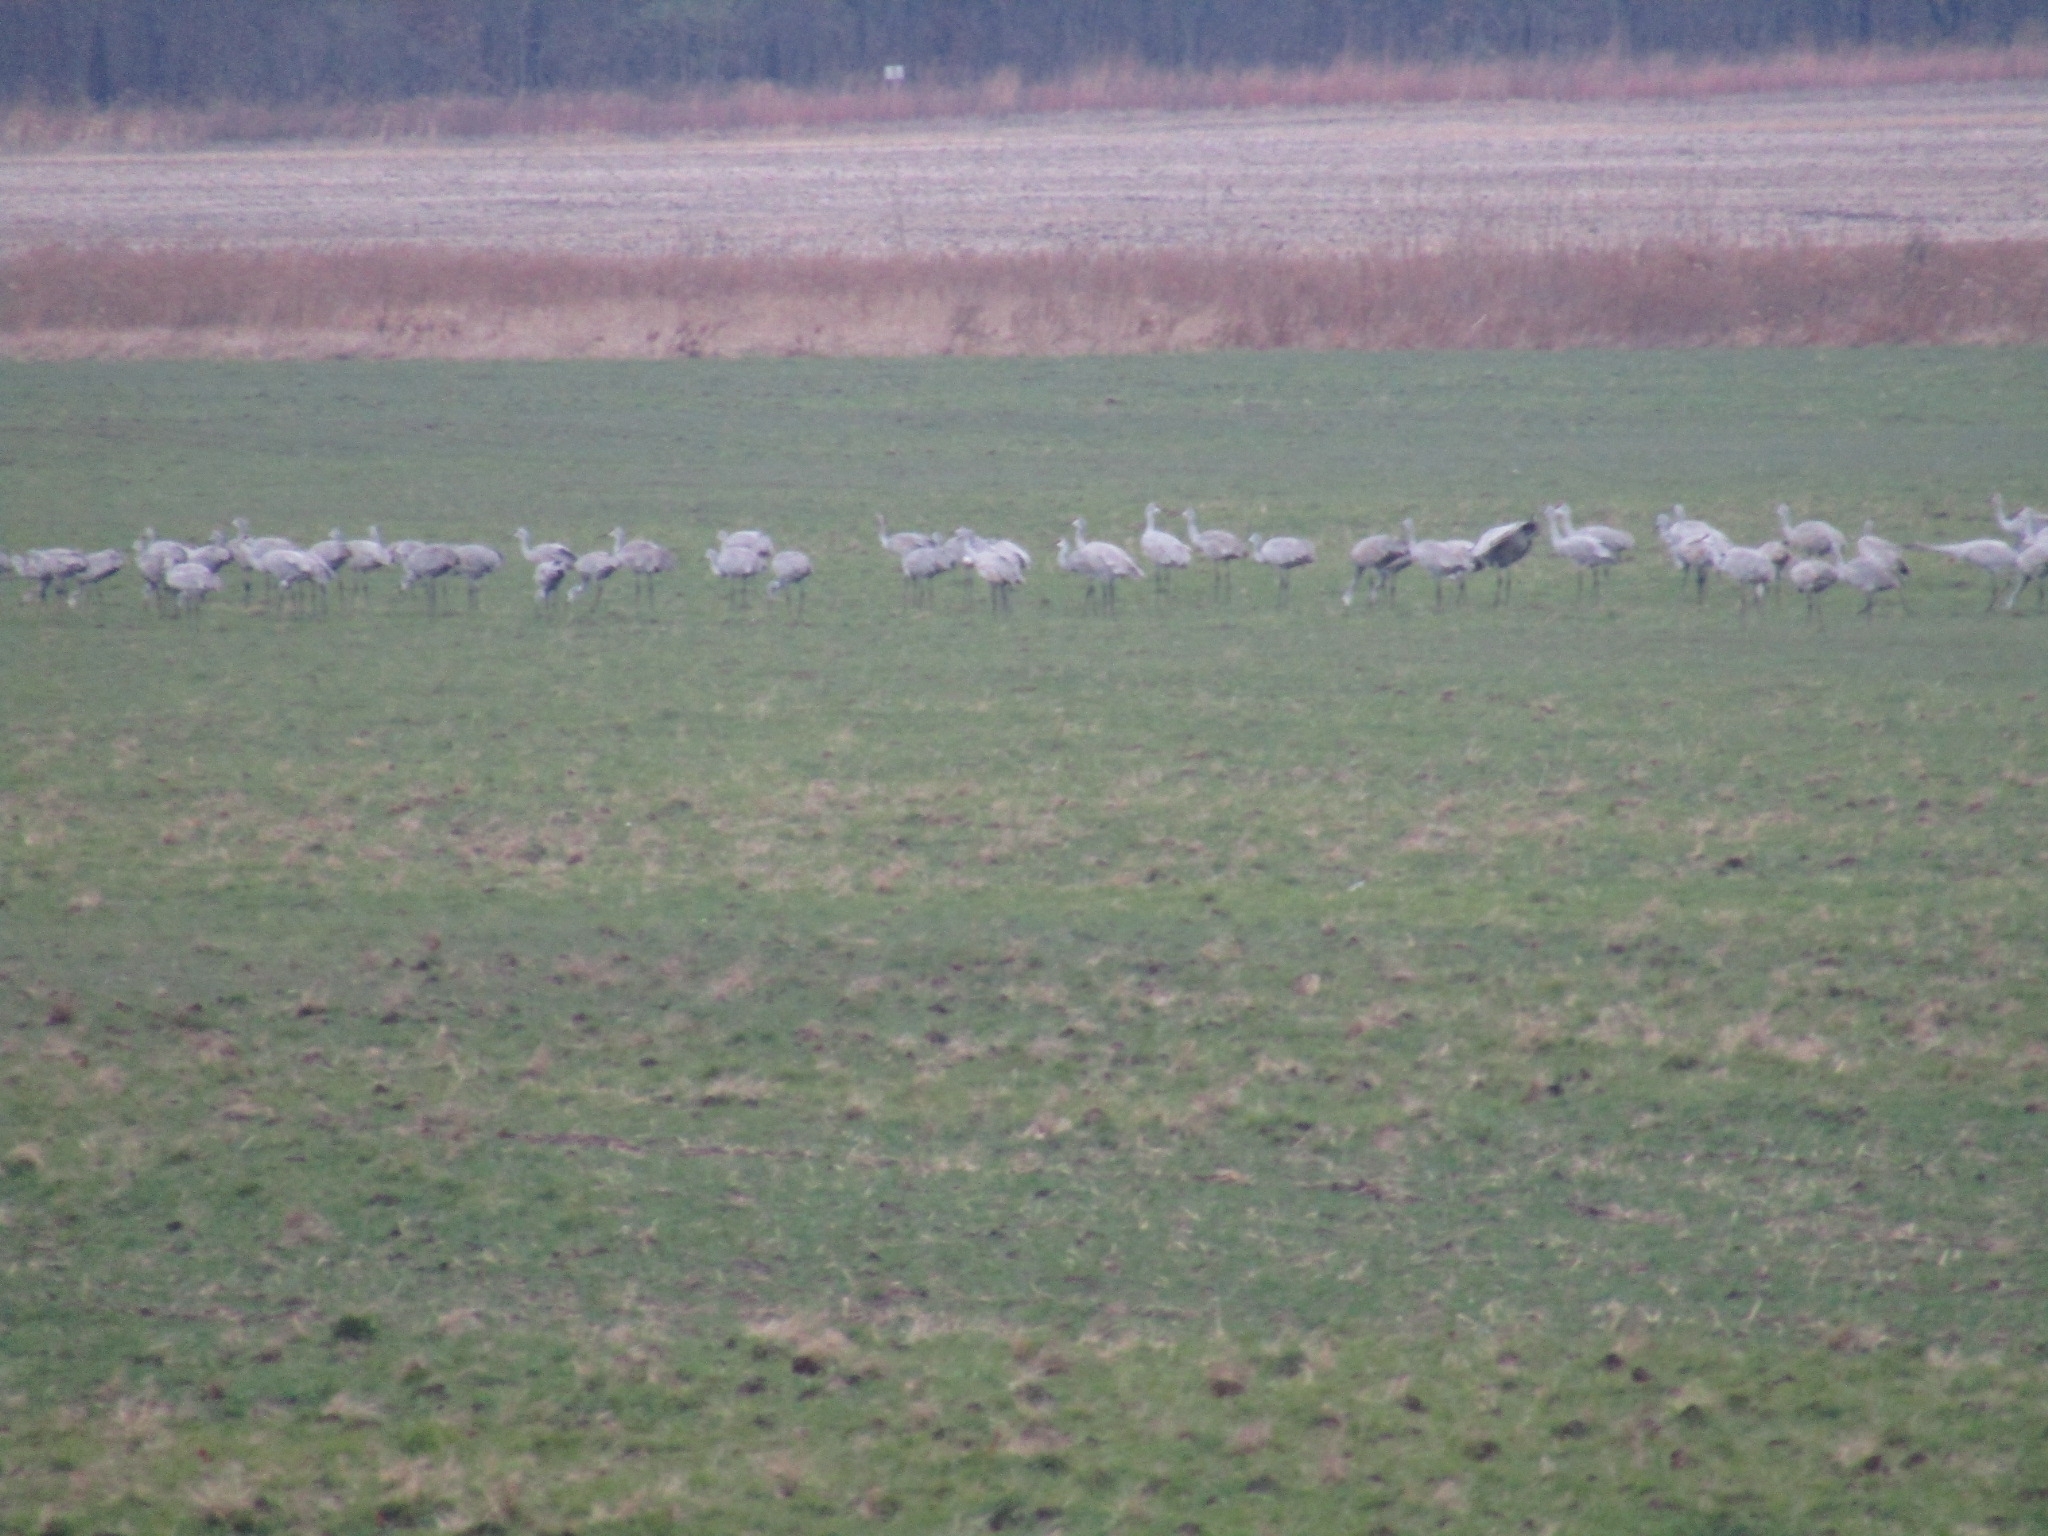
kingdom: Animalia
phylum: Chordata
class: Aves
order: Gruiformes
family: Gruidae
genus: Grus
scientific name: Grus canadensis
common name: Sandhill crane
